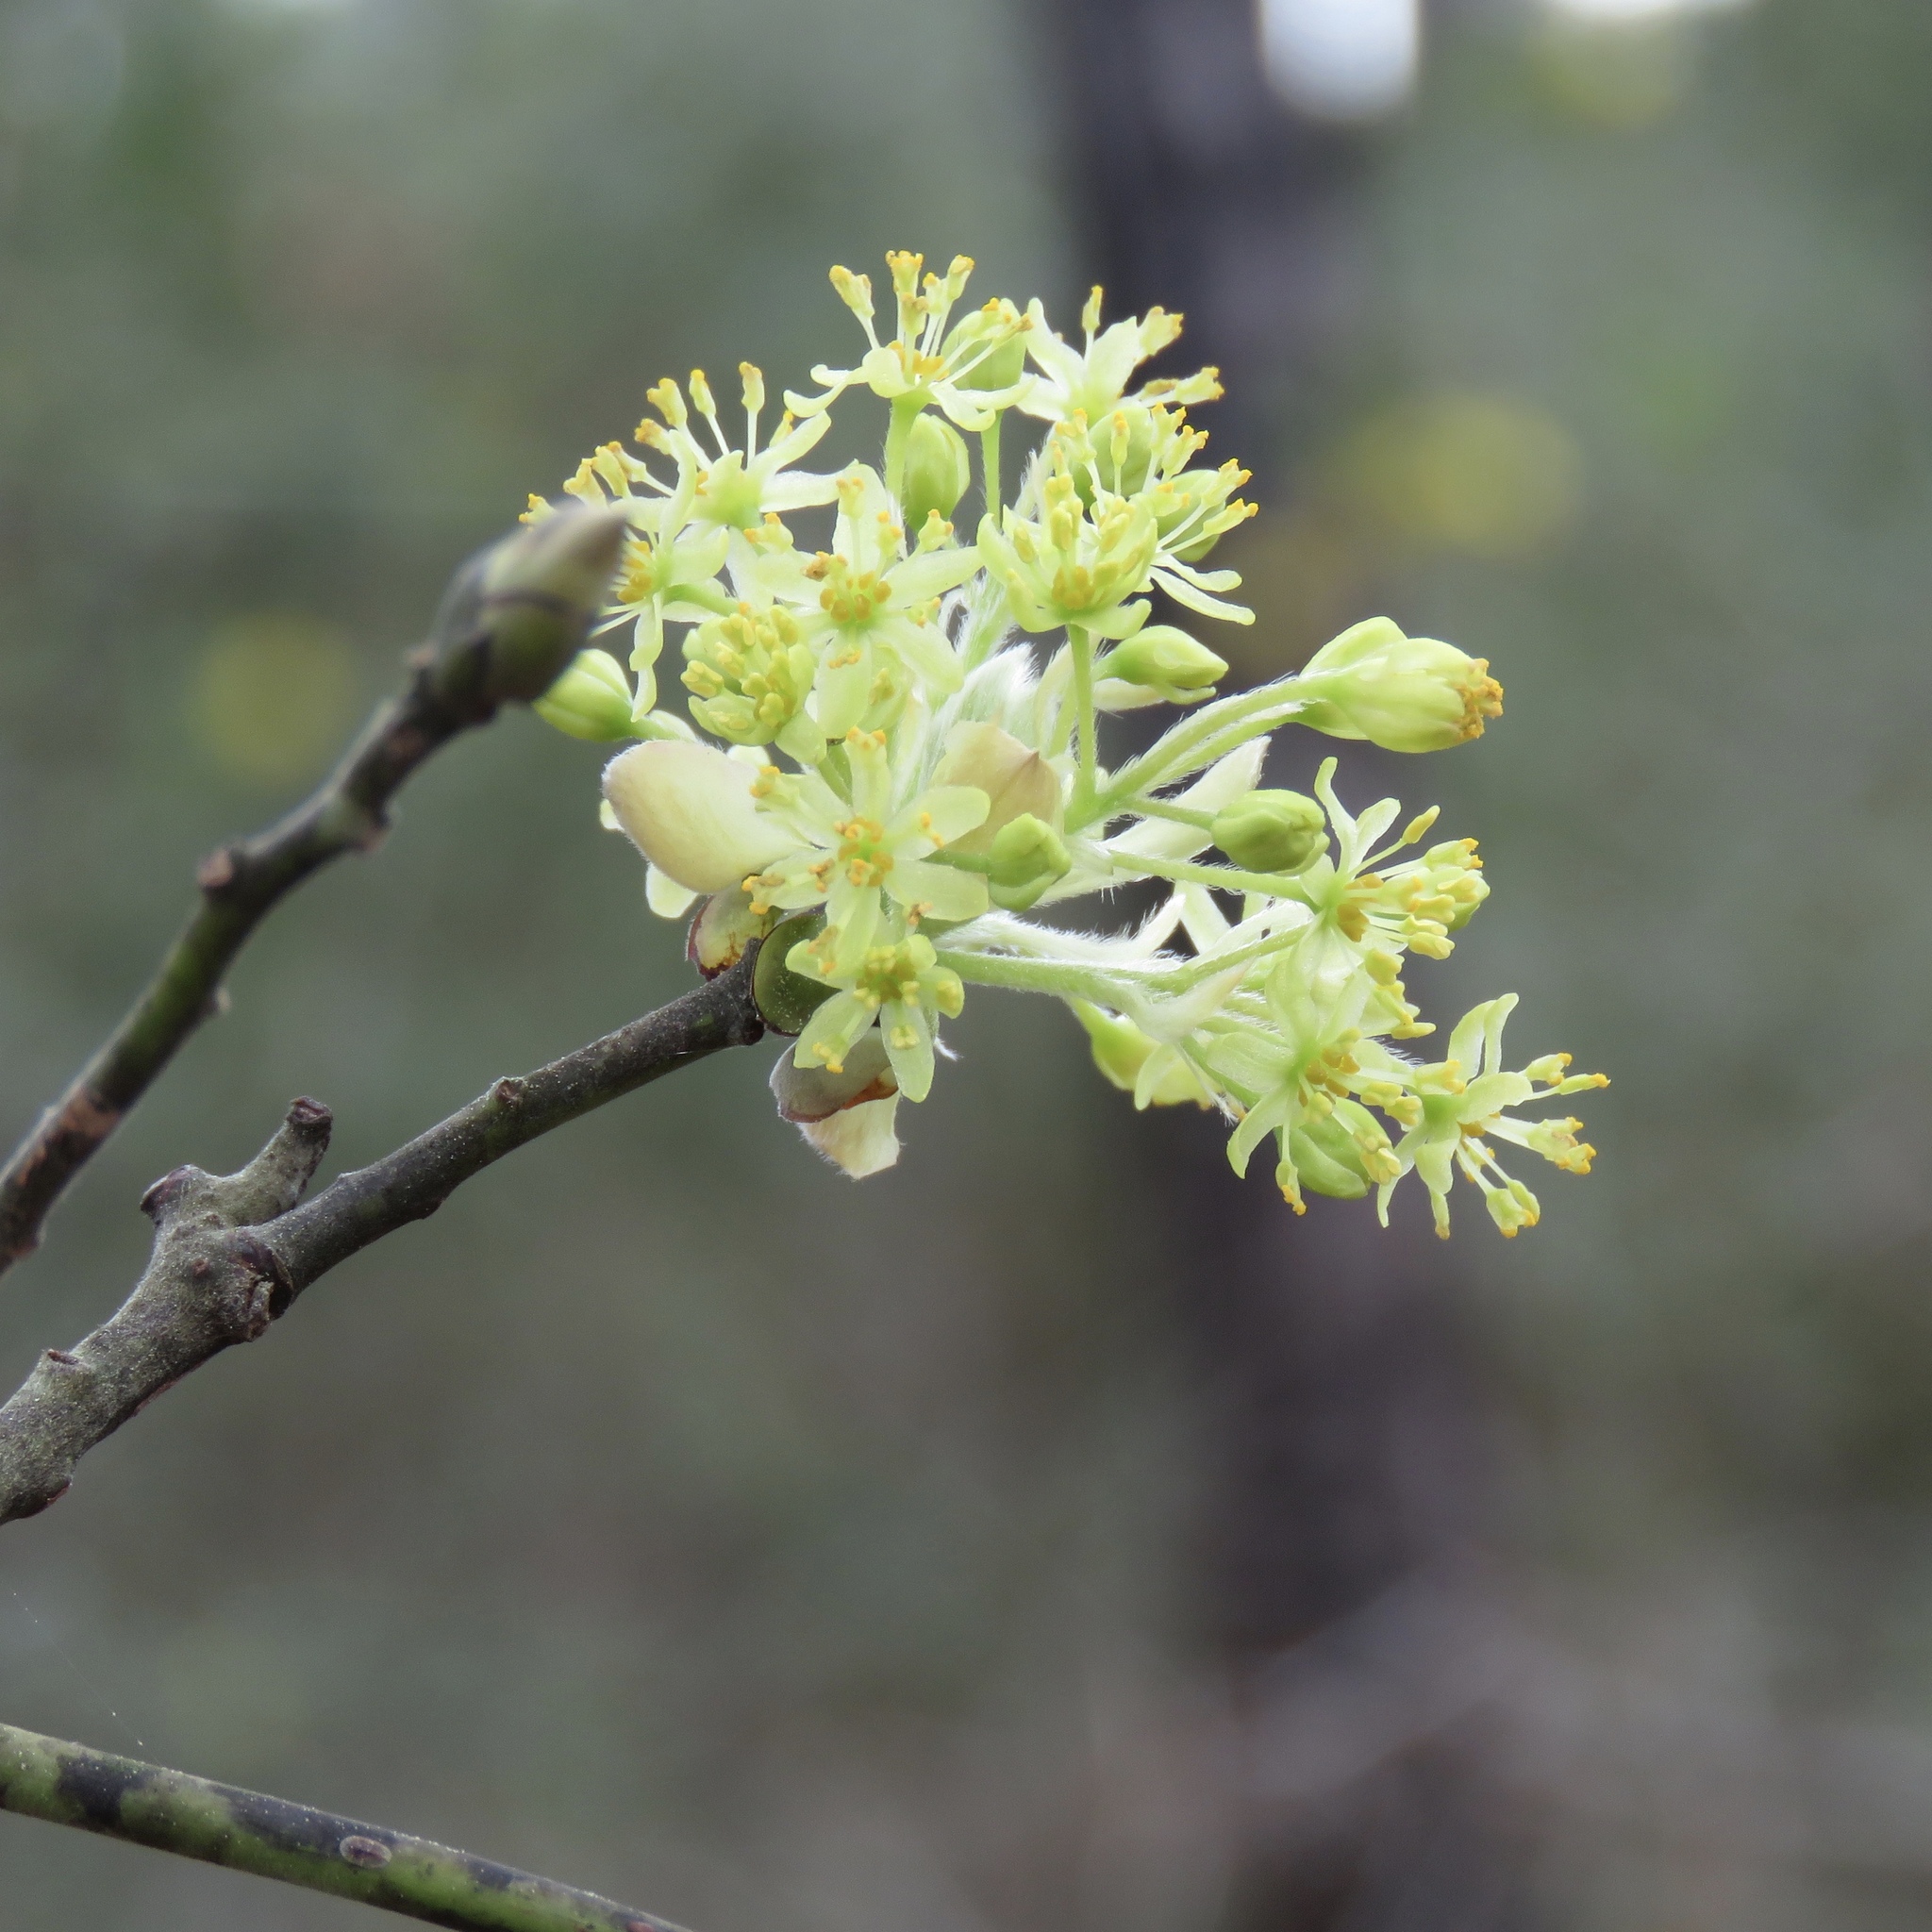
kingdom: Plantae
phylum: Tracheophyta
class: Magnoliopsida
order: Laurales
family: Lauraceae
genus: Sassafras
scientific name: Sassafras albidum
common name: Sassafras
